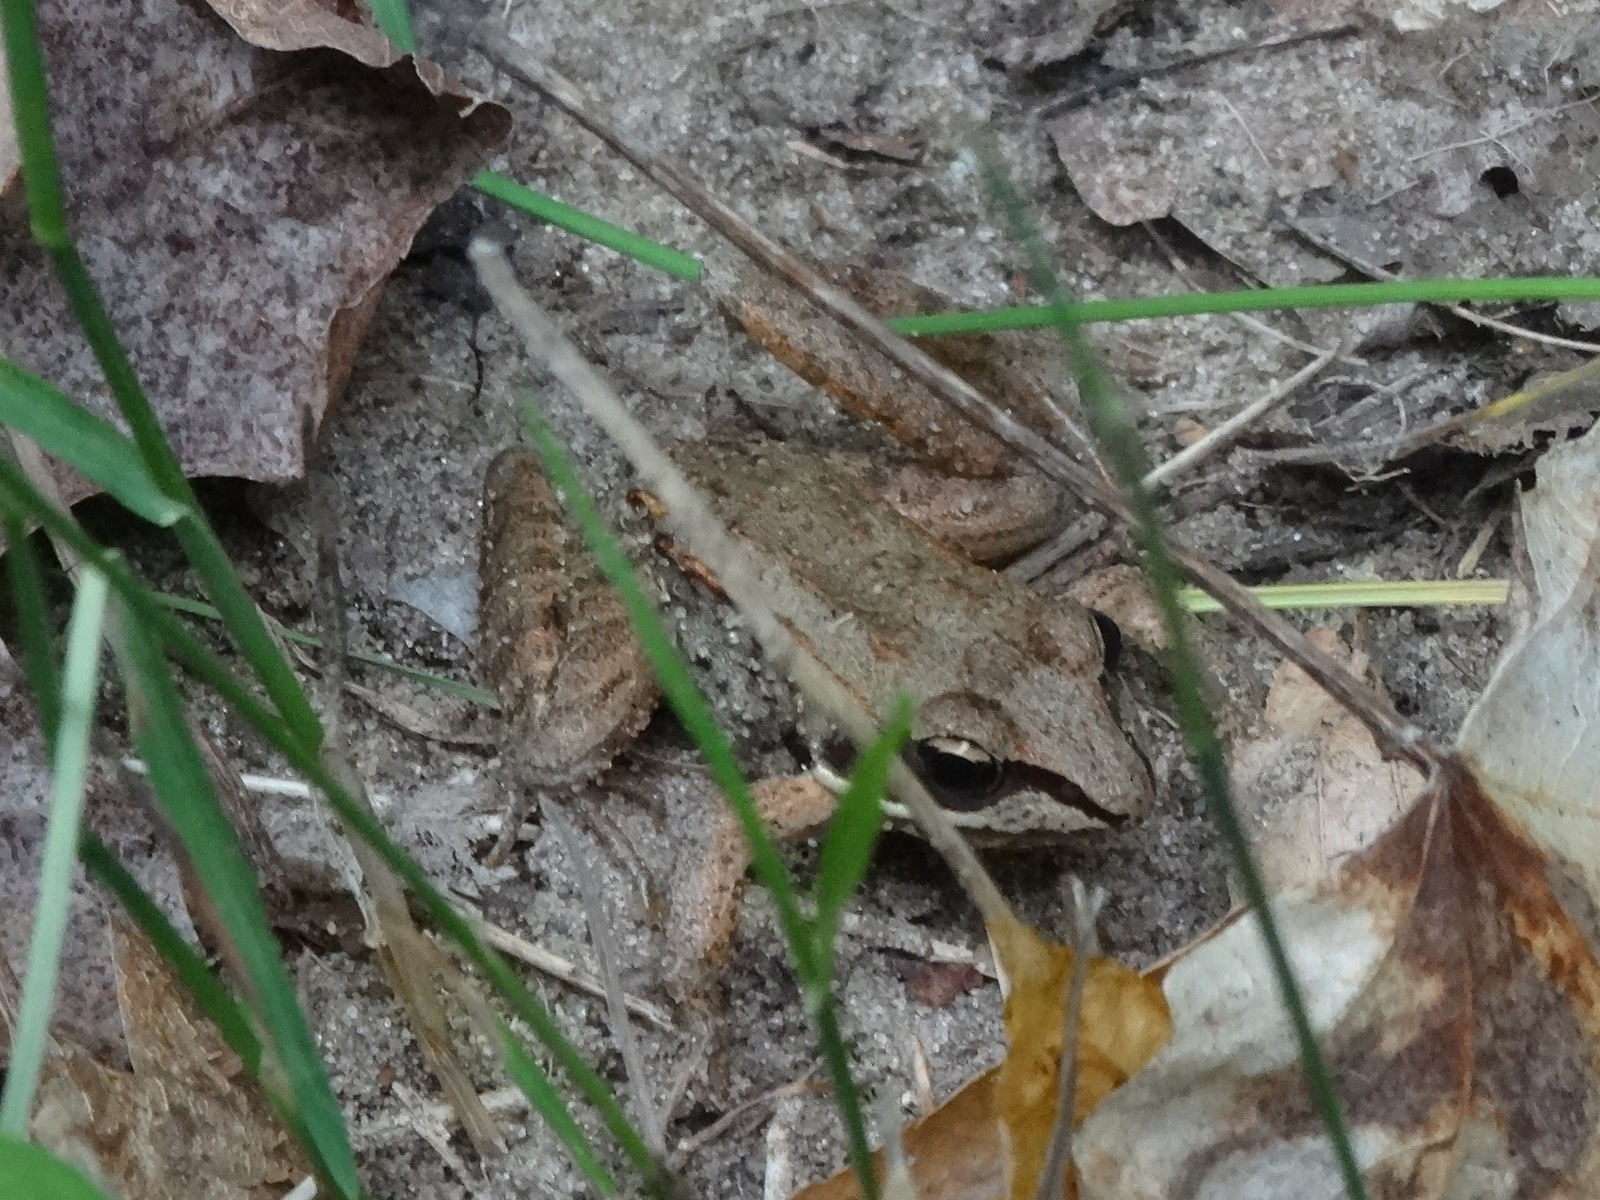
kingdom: Animalia
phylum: Chordata
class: Amphibia
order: Anura
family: Ranidae
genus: Lithobates
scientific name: Lithobates sylvaticus
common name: Wood frog
